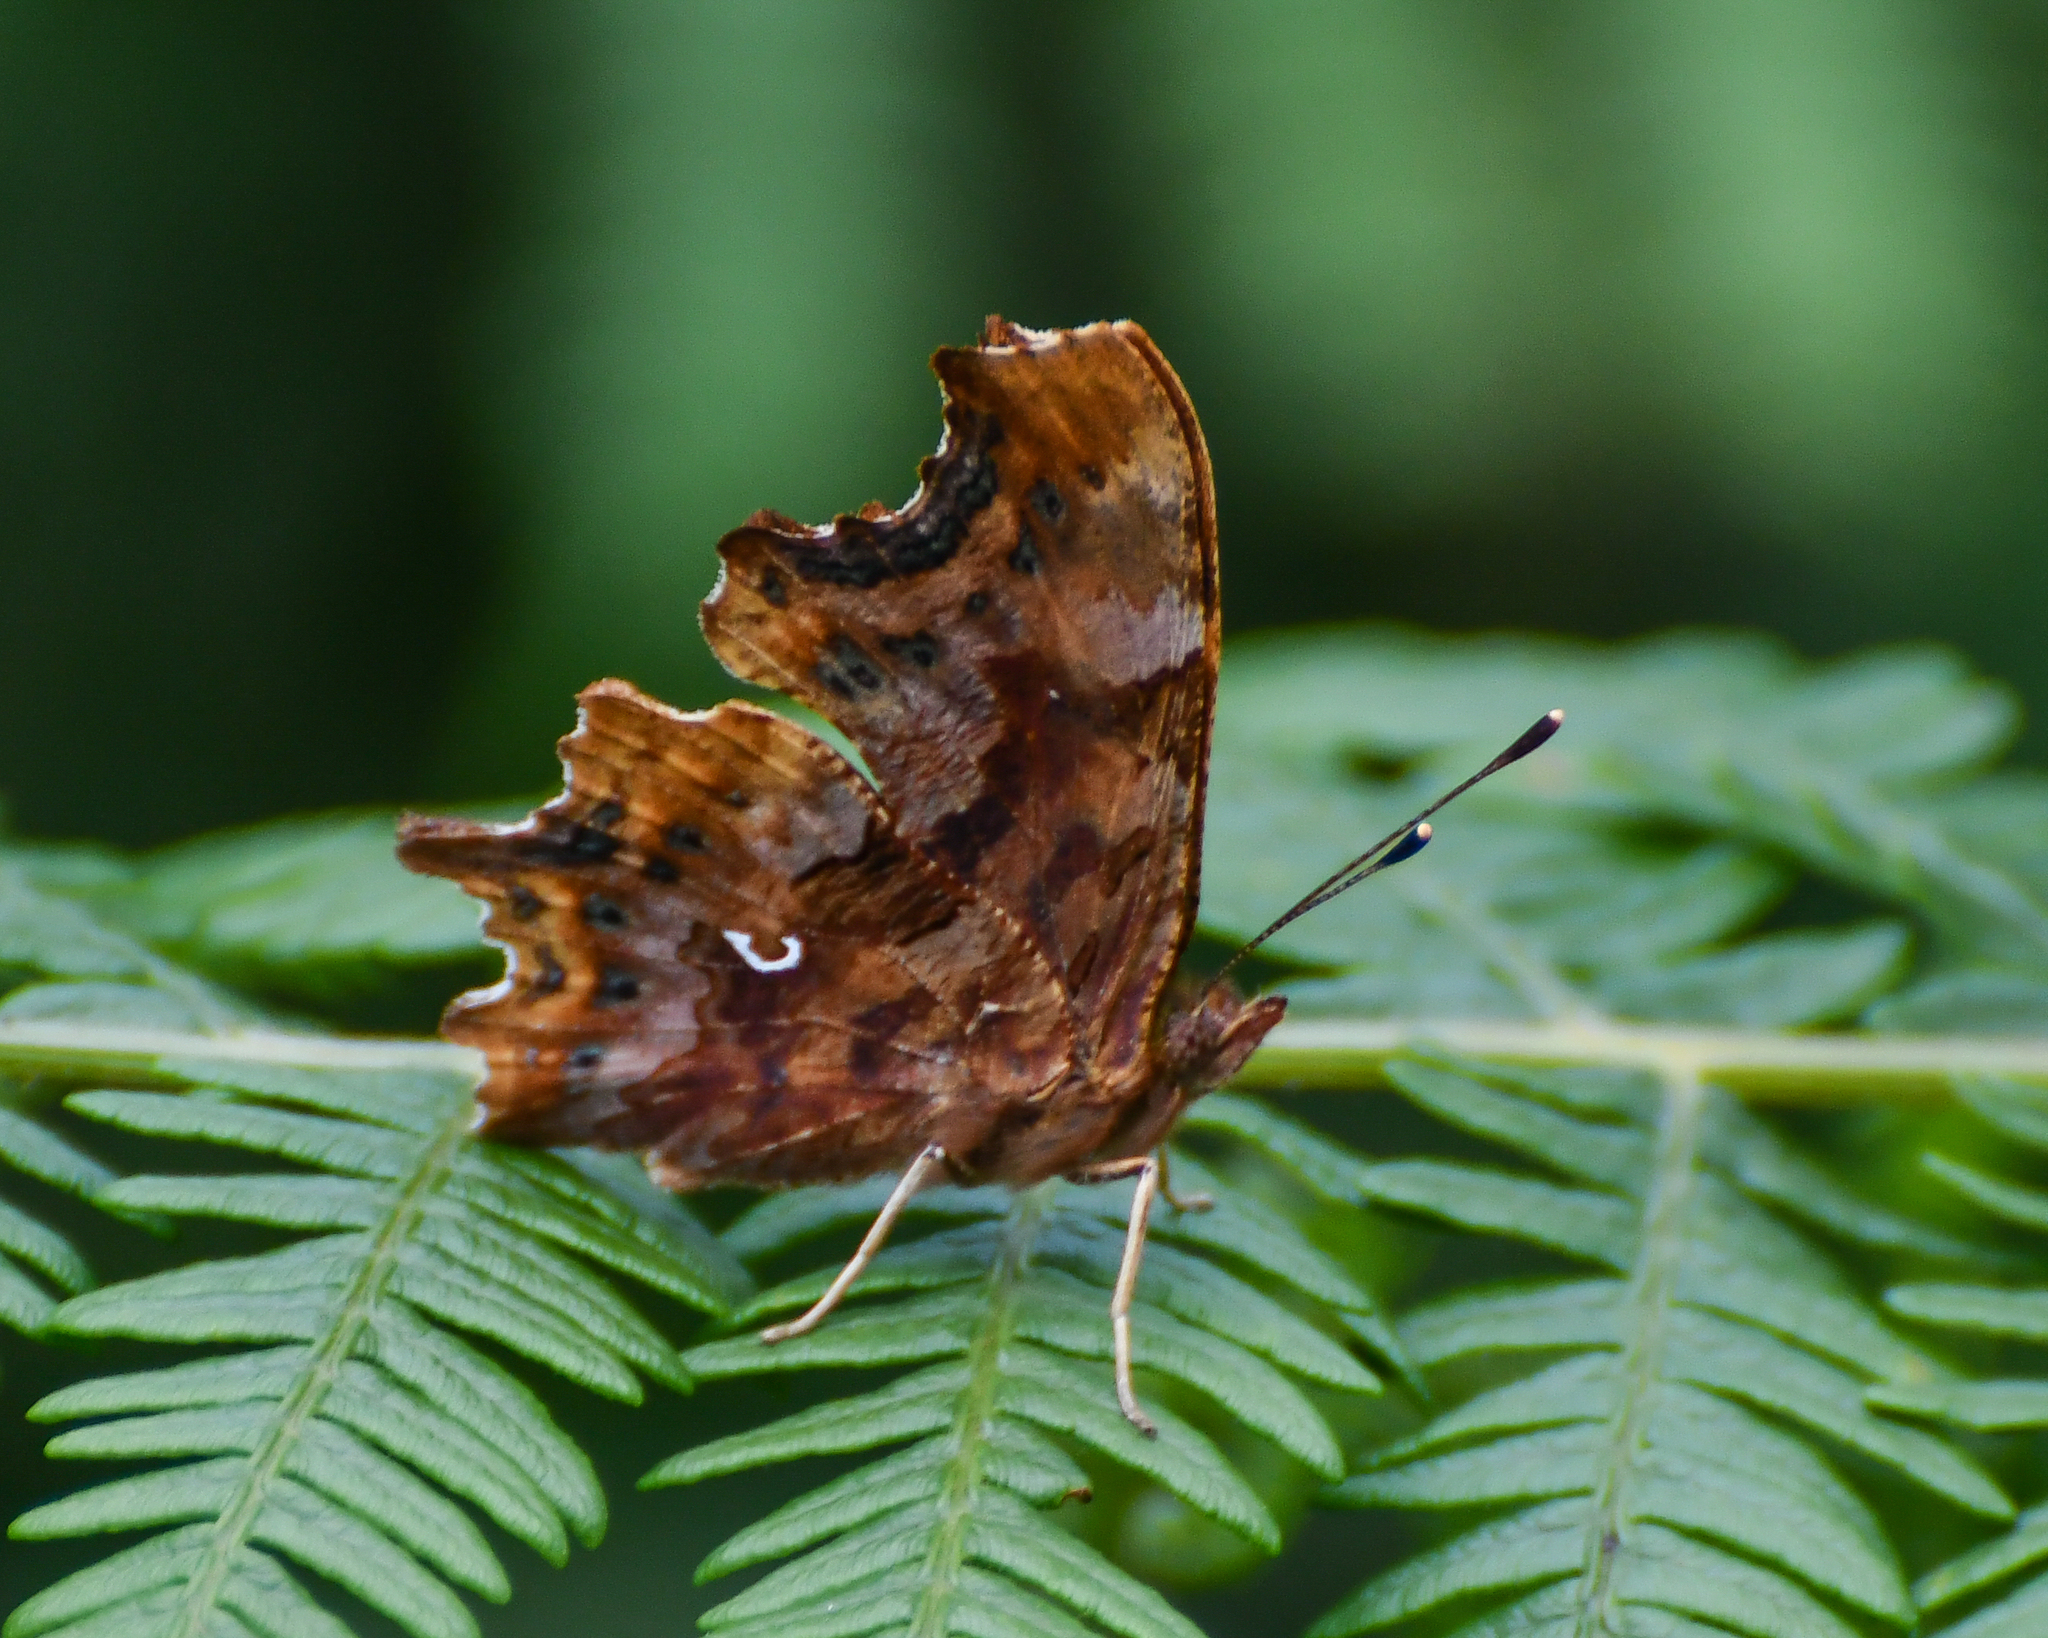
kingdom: Animalia
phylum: Arthropoda
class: Insecta
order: Lepidoptera
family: Nymphalidae
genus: Polygonia
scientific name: Polygonia c-album
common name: Comma
